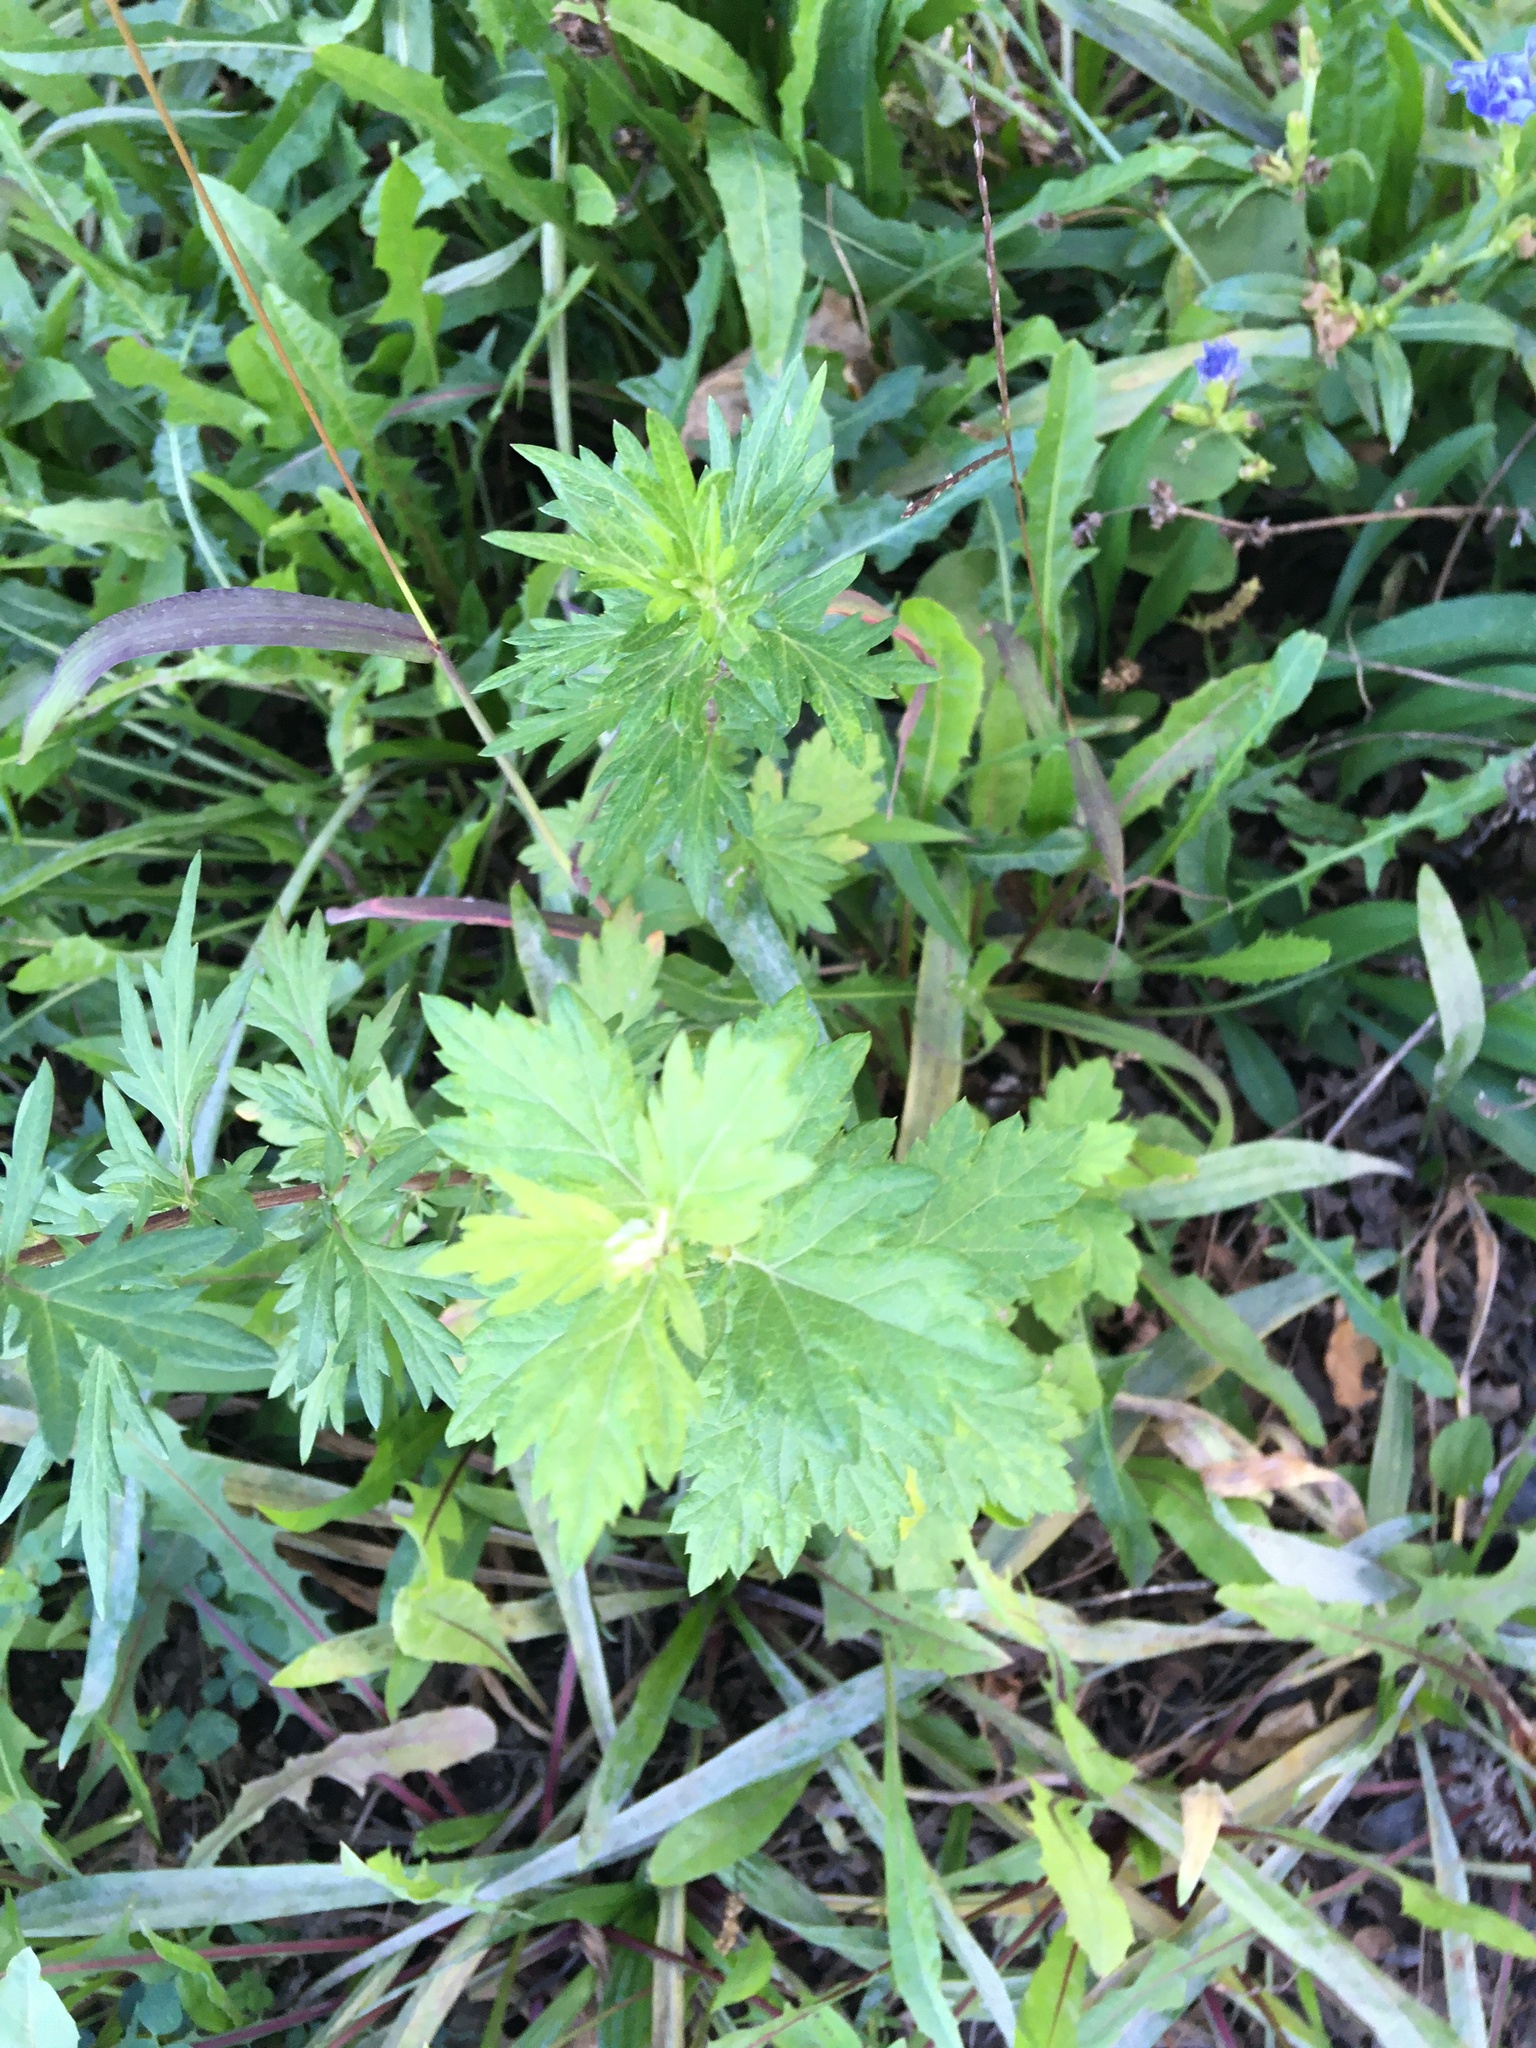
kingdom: Plantae
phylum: Tracheophyta
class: Magnoliopsida
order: Asterales
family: Asteraceae
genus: Artemisia
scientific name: Artemisia vulgaris
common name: Mugwort
